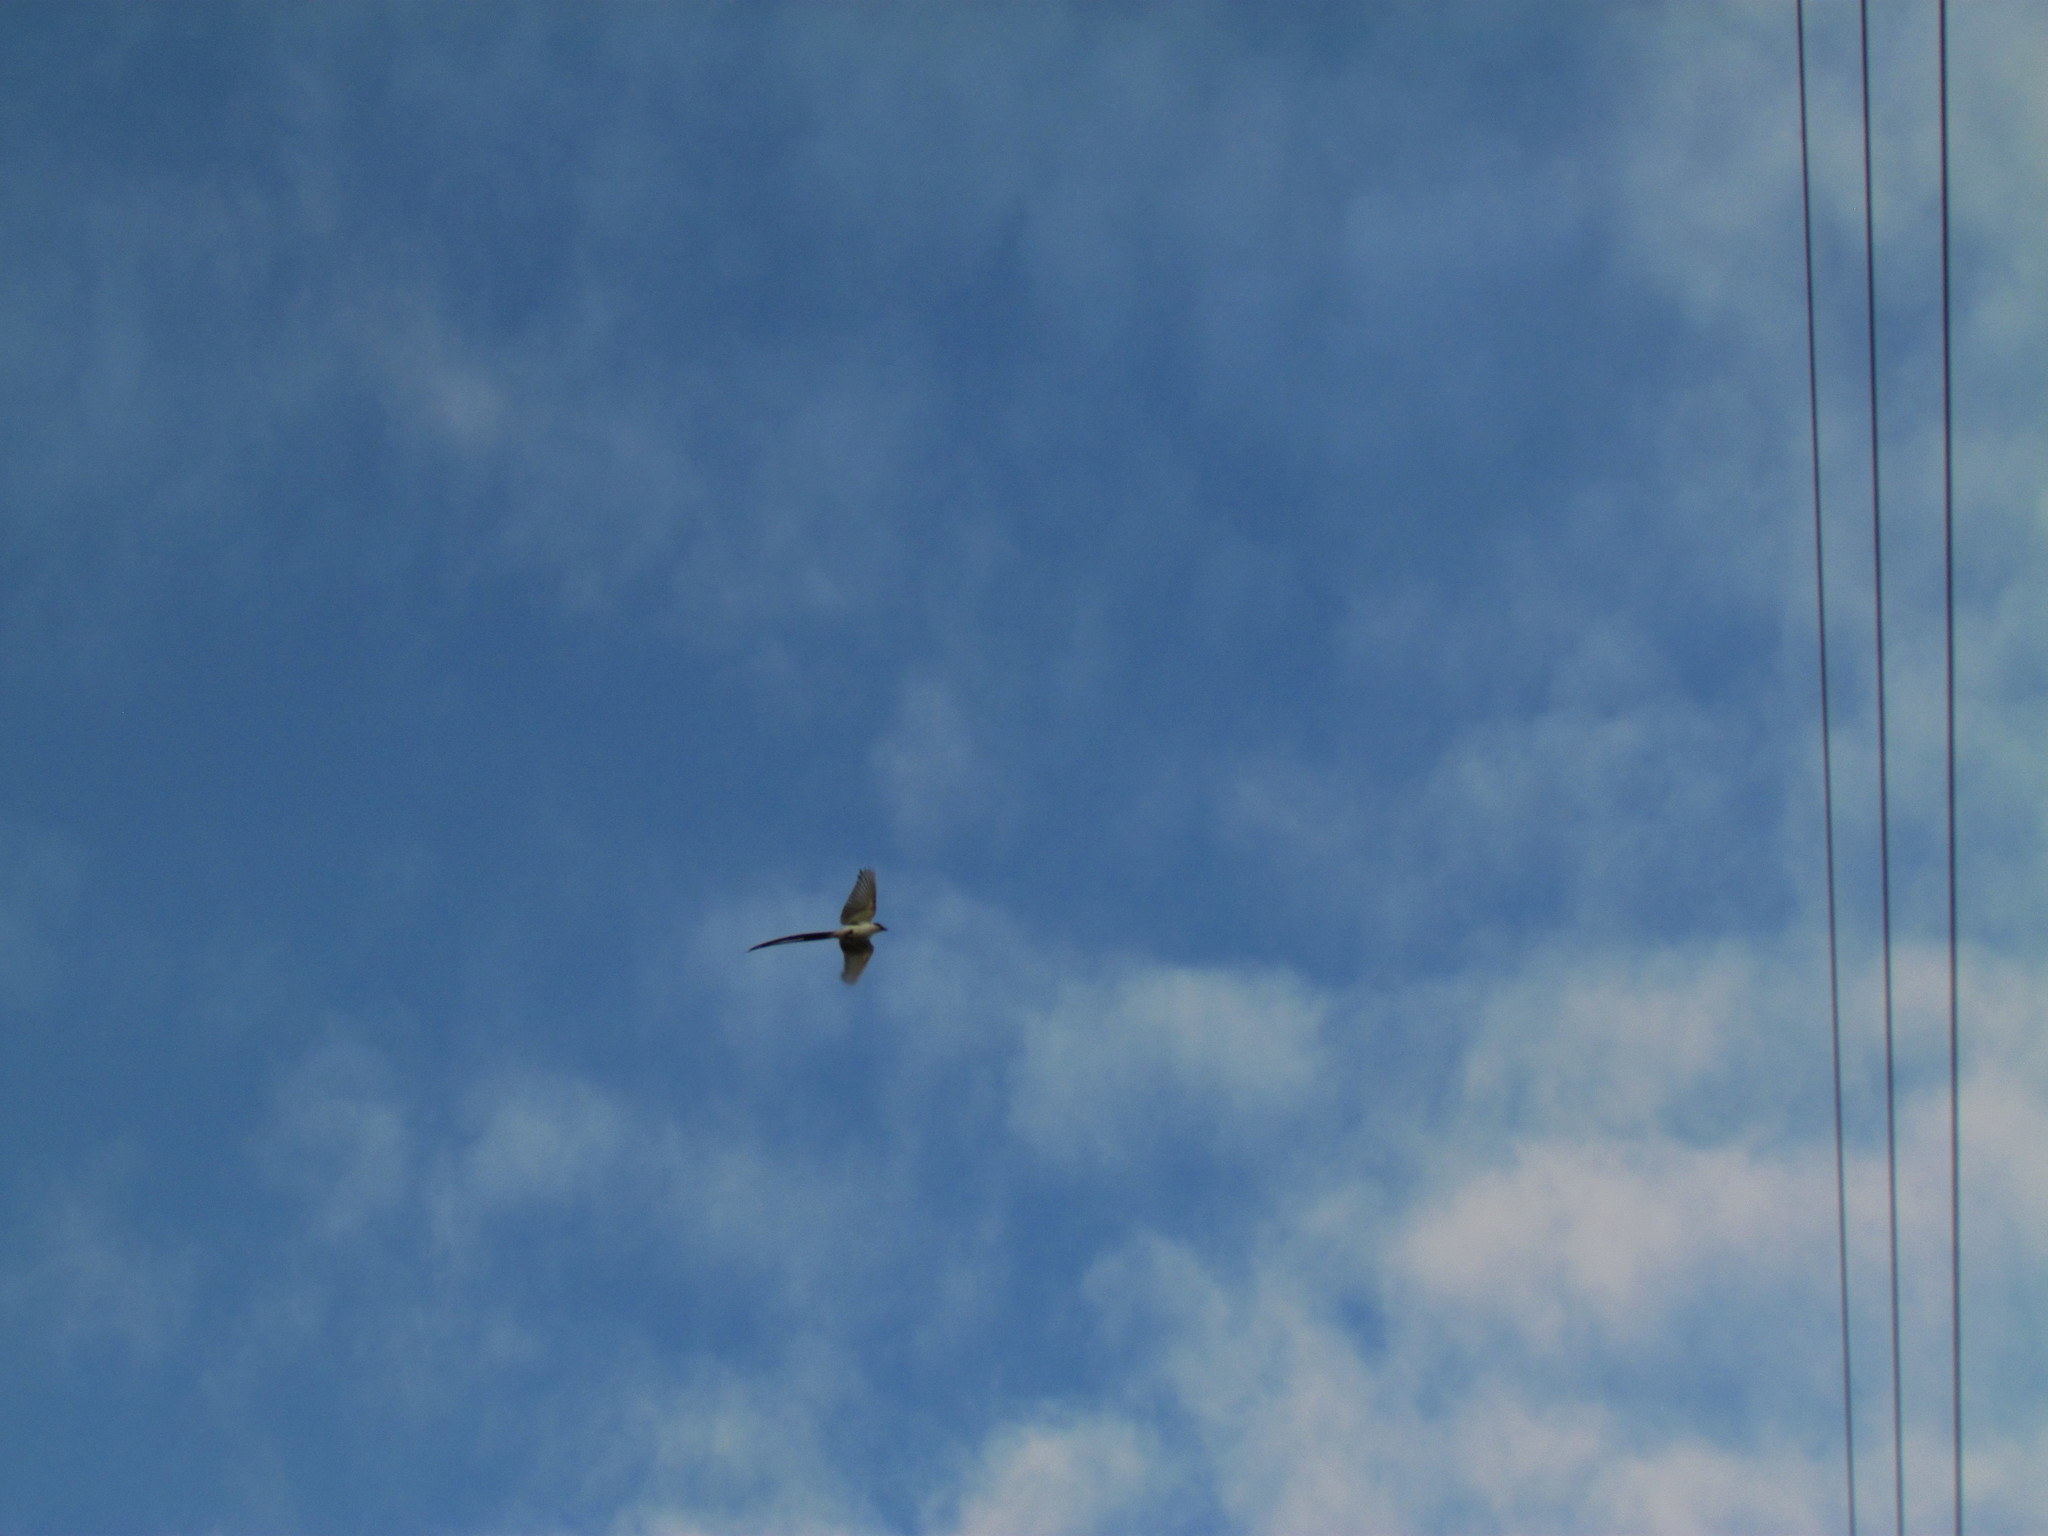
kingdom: Animalia
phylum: Chordata
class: Aves
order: Passeriformes
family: Tyrannidae
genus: Tyrannus
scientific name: Tyrannus savana
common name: Fork-tailed flycatcher
